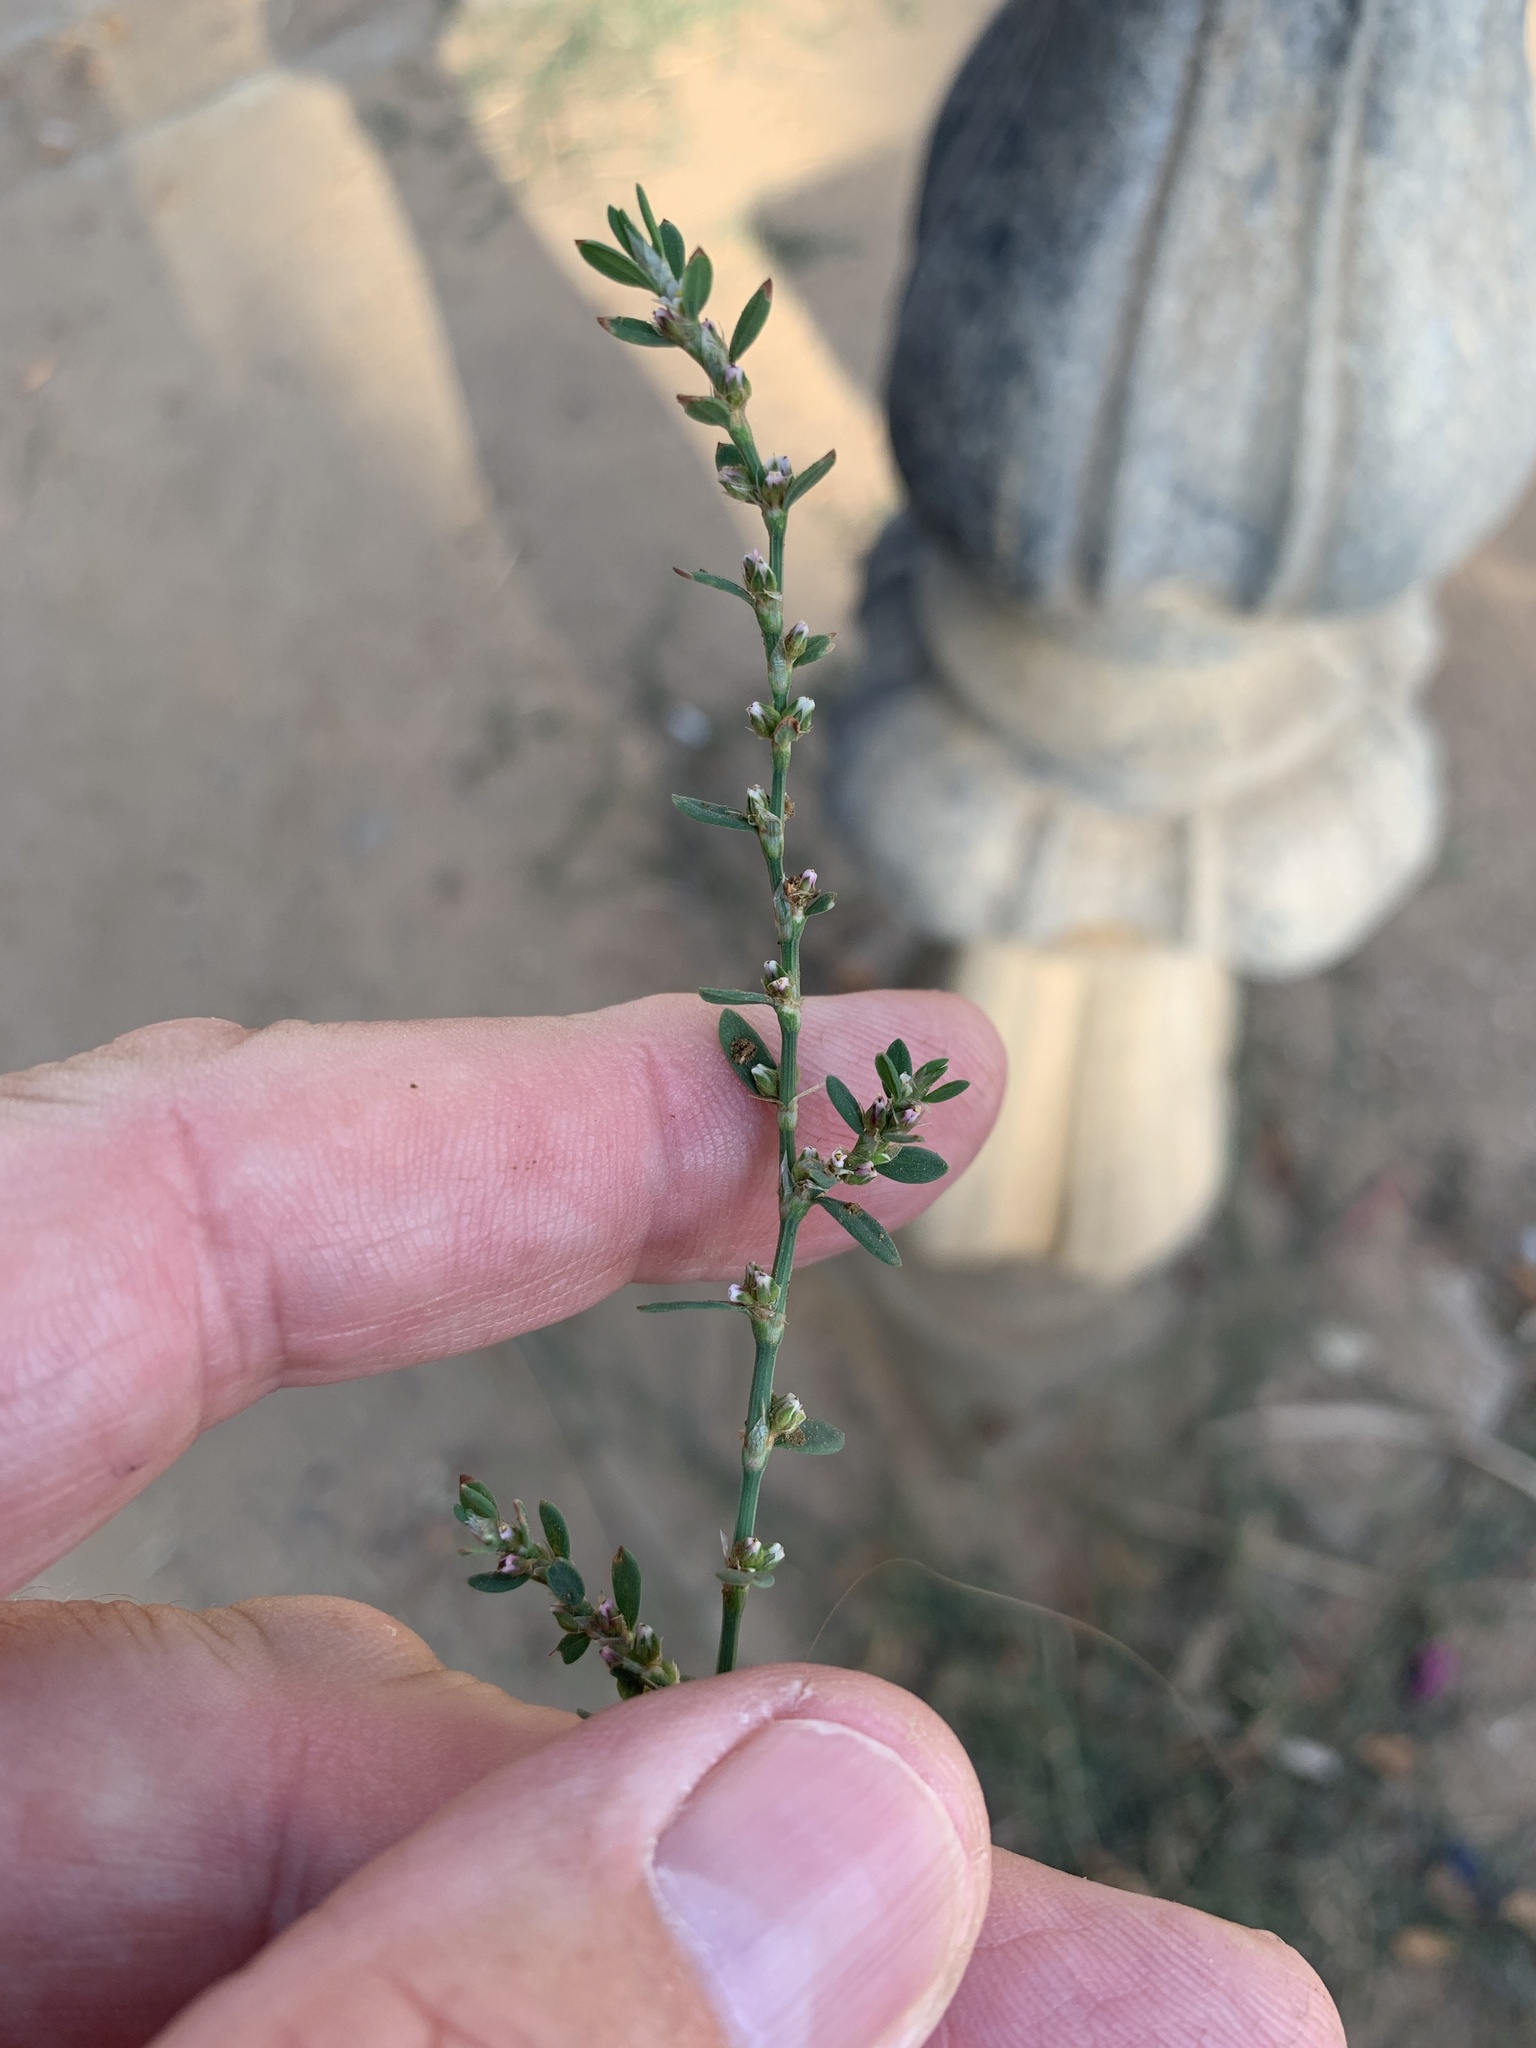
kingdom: Plantae
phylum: Tracheophyta
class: Magnoliopsida
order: Caryophyllales
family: Polygonaceae
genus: Polygonum
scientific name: Polygonum aviculare
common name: Prostrate knotweed
